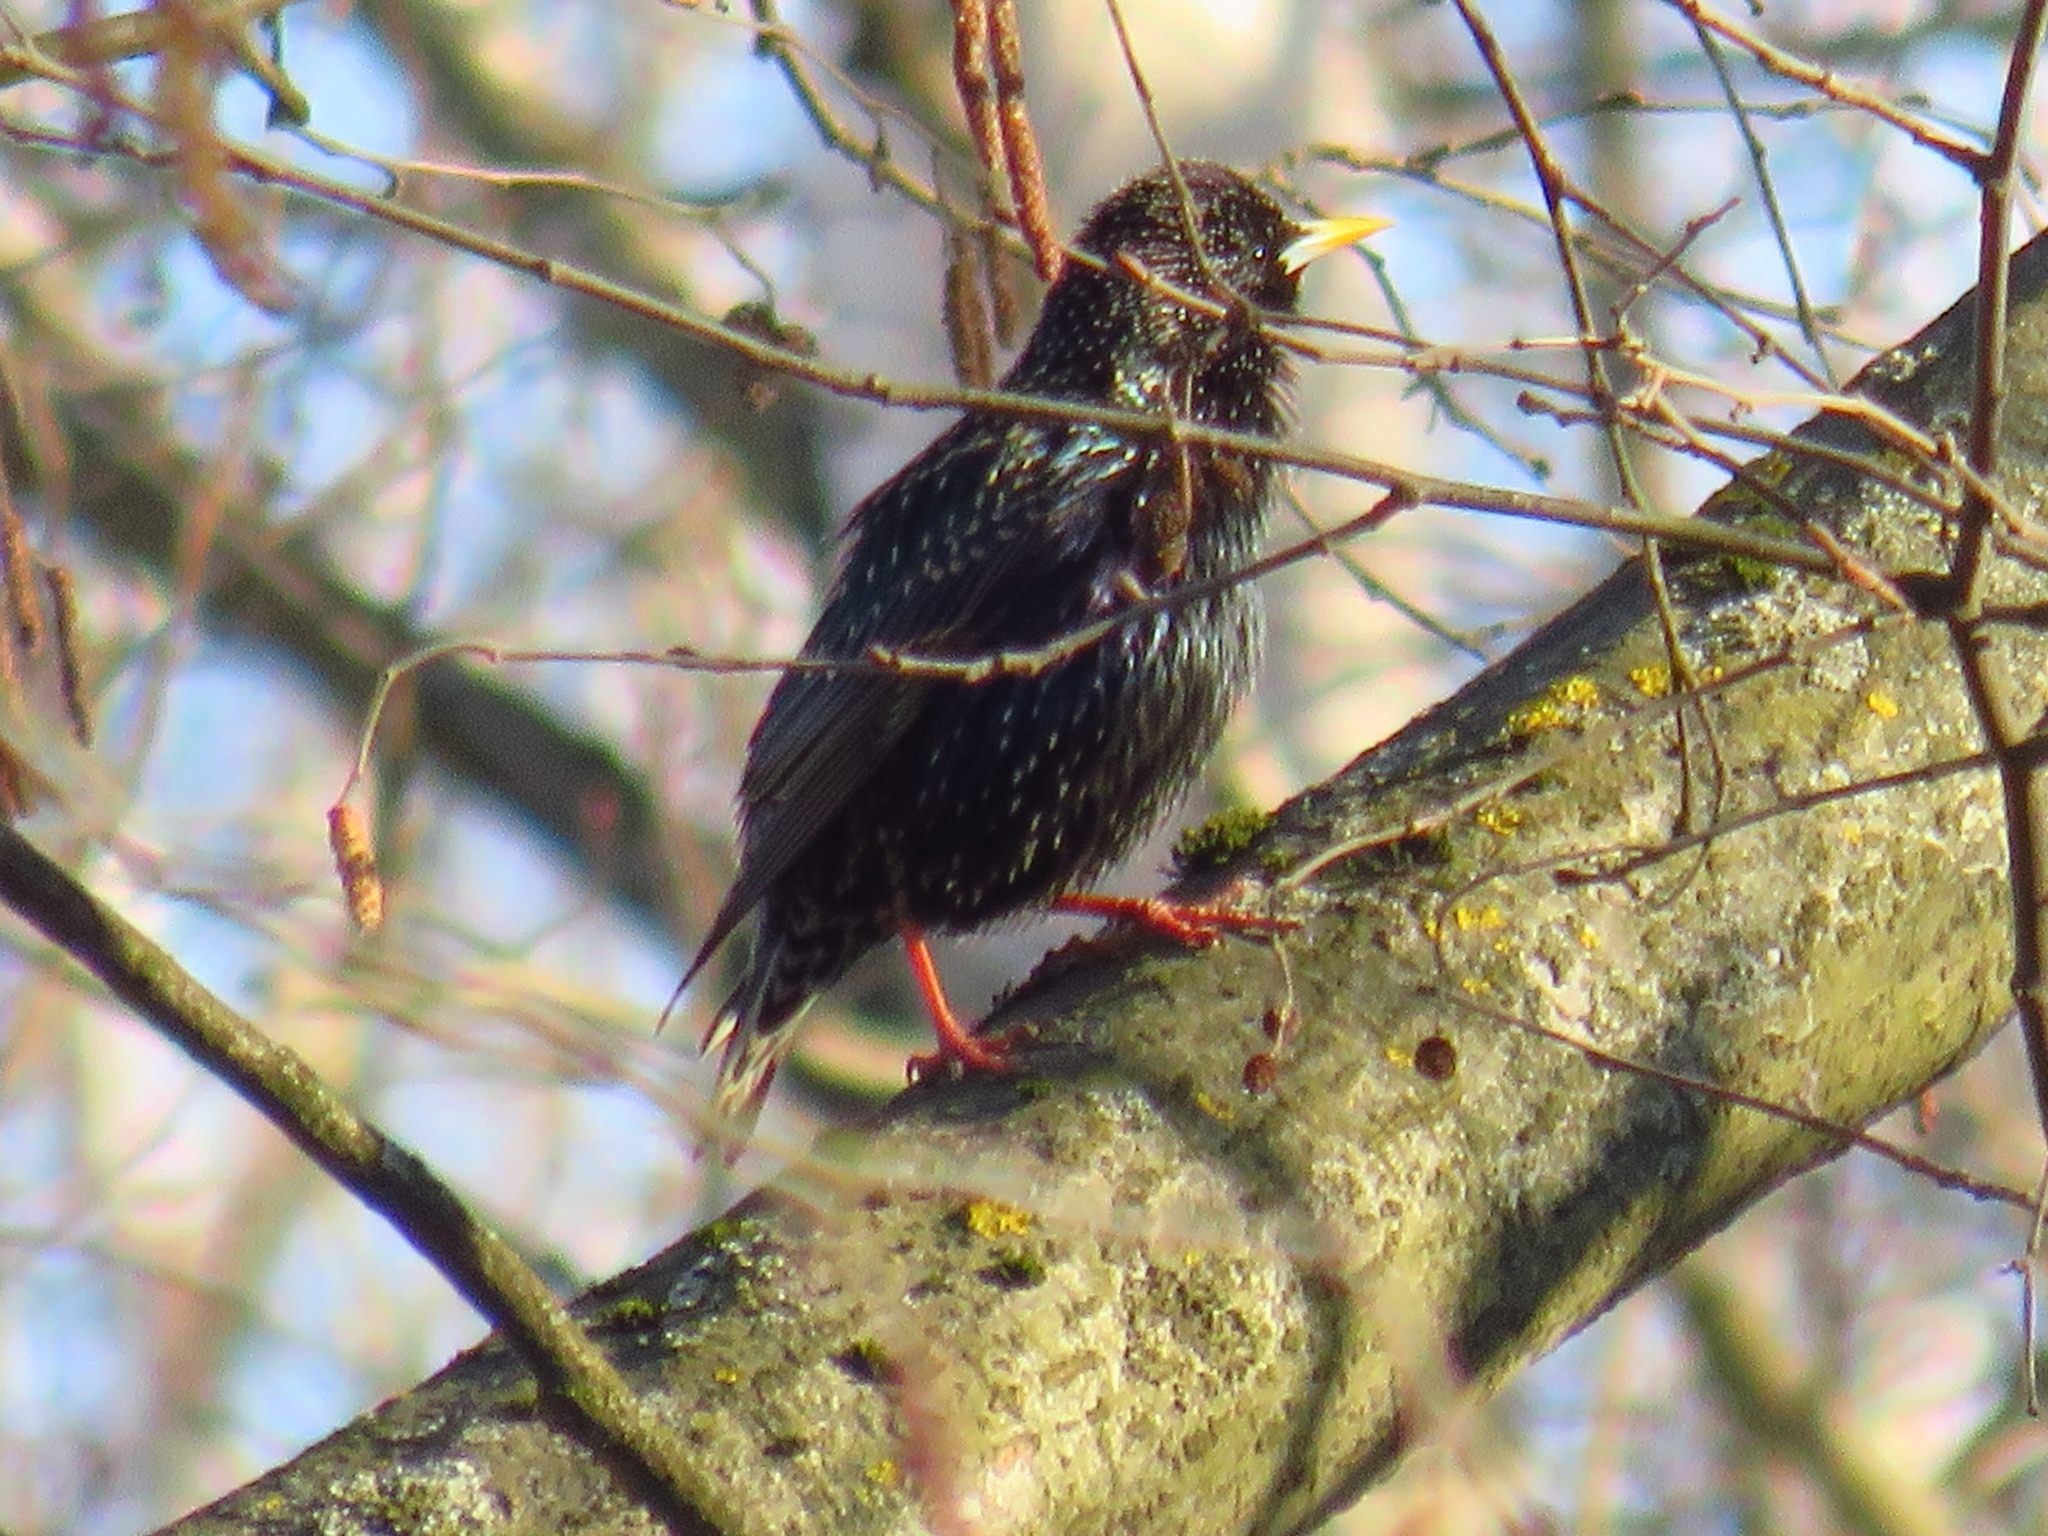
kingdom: Animalia
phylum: Chordata
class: Aves
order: Passeriformes
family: Sturnidae
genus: Sturnus
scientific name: Sturnus vulgaris
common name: Common starling
